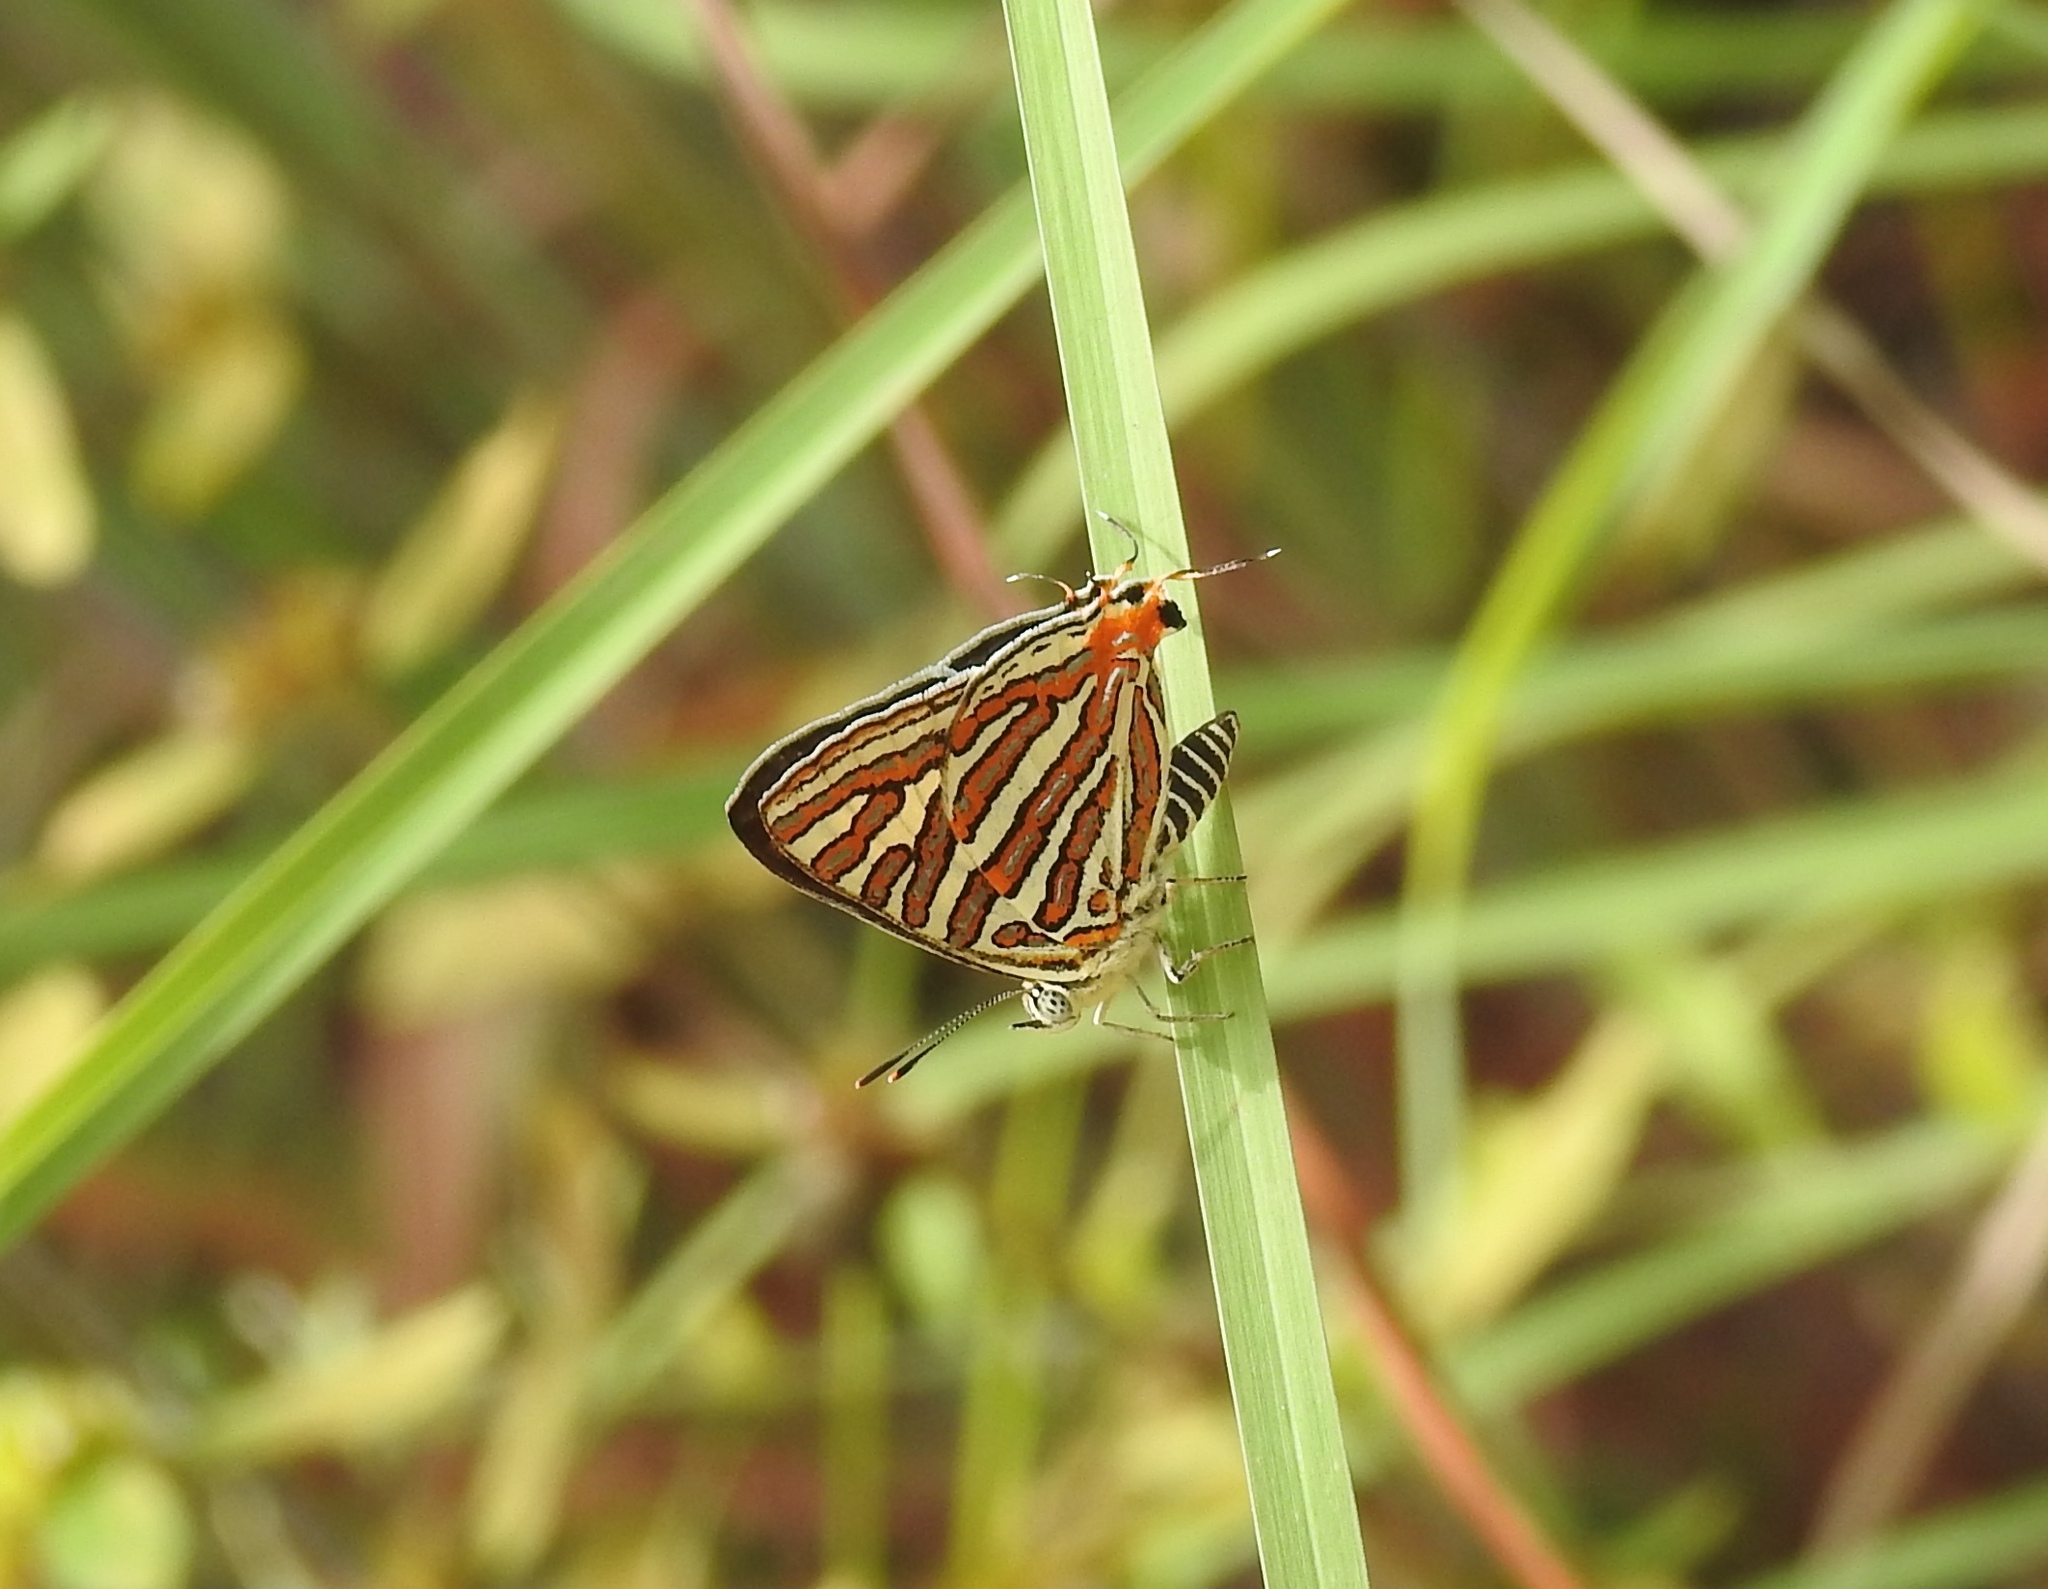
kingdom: Animalia
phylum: Arthropoda
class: Insecta
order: Lepidoptera
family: Lycaenidae
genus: Cigaritis
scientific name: Cigaritis
